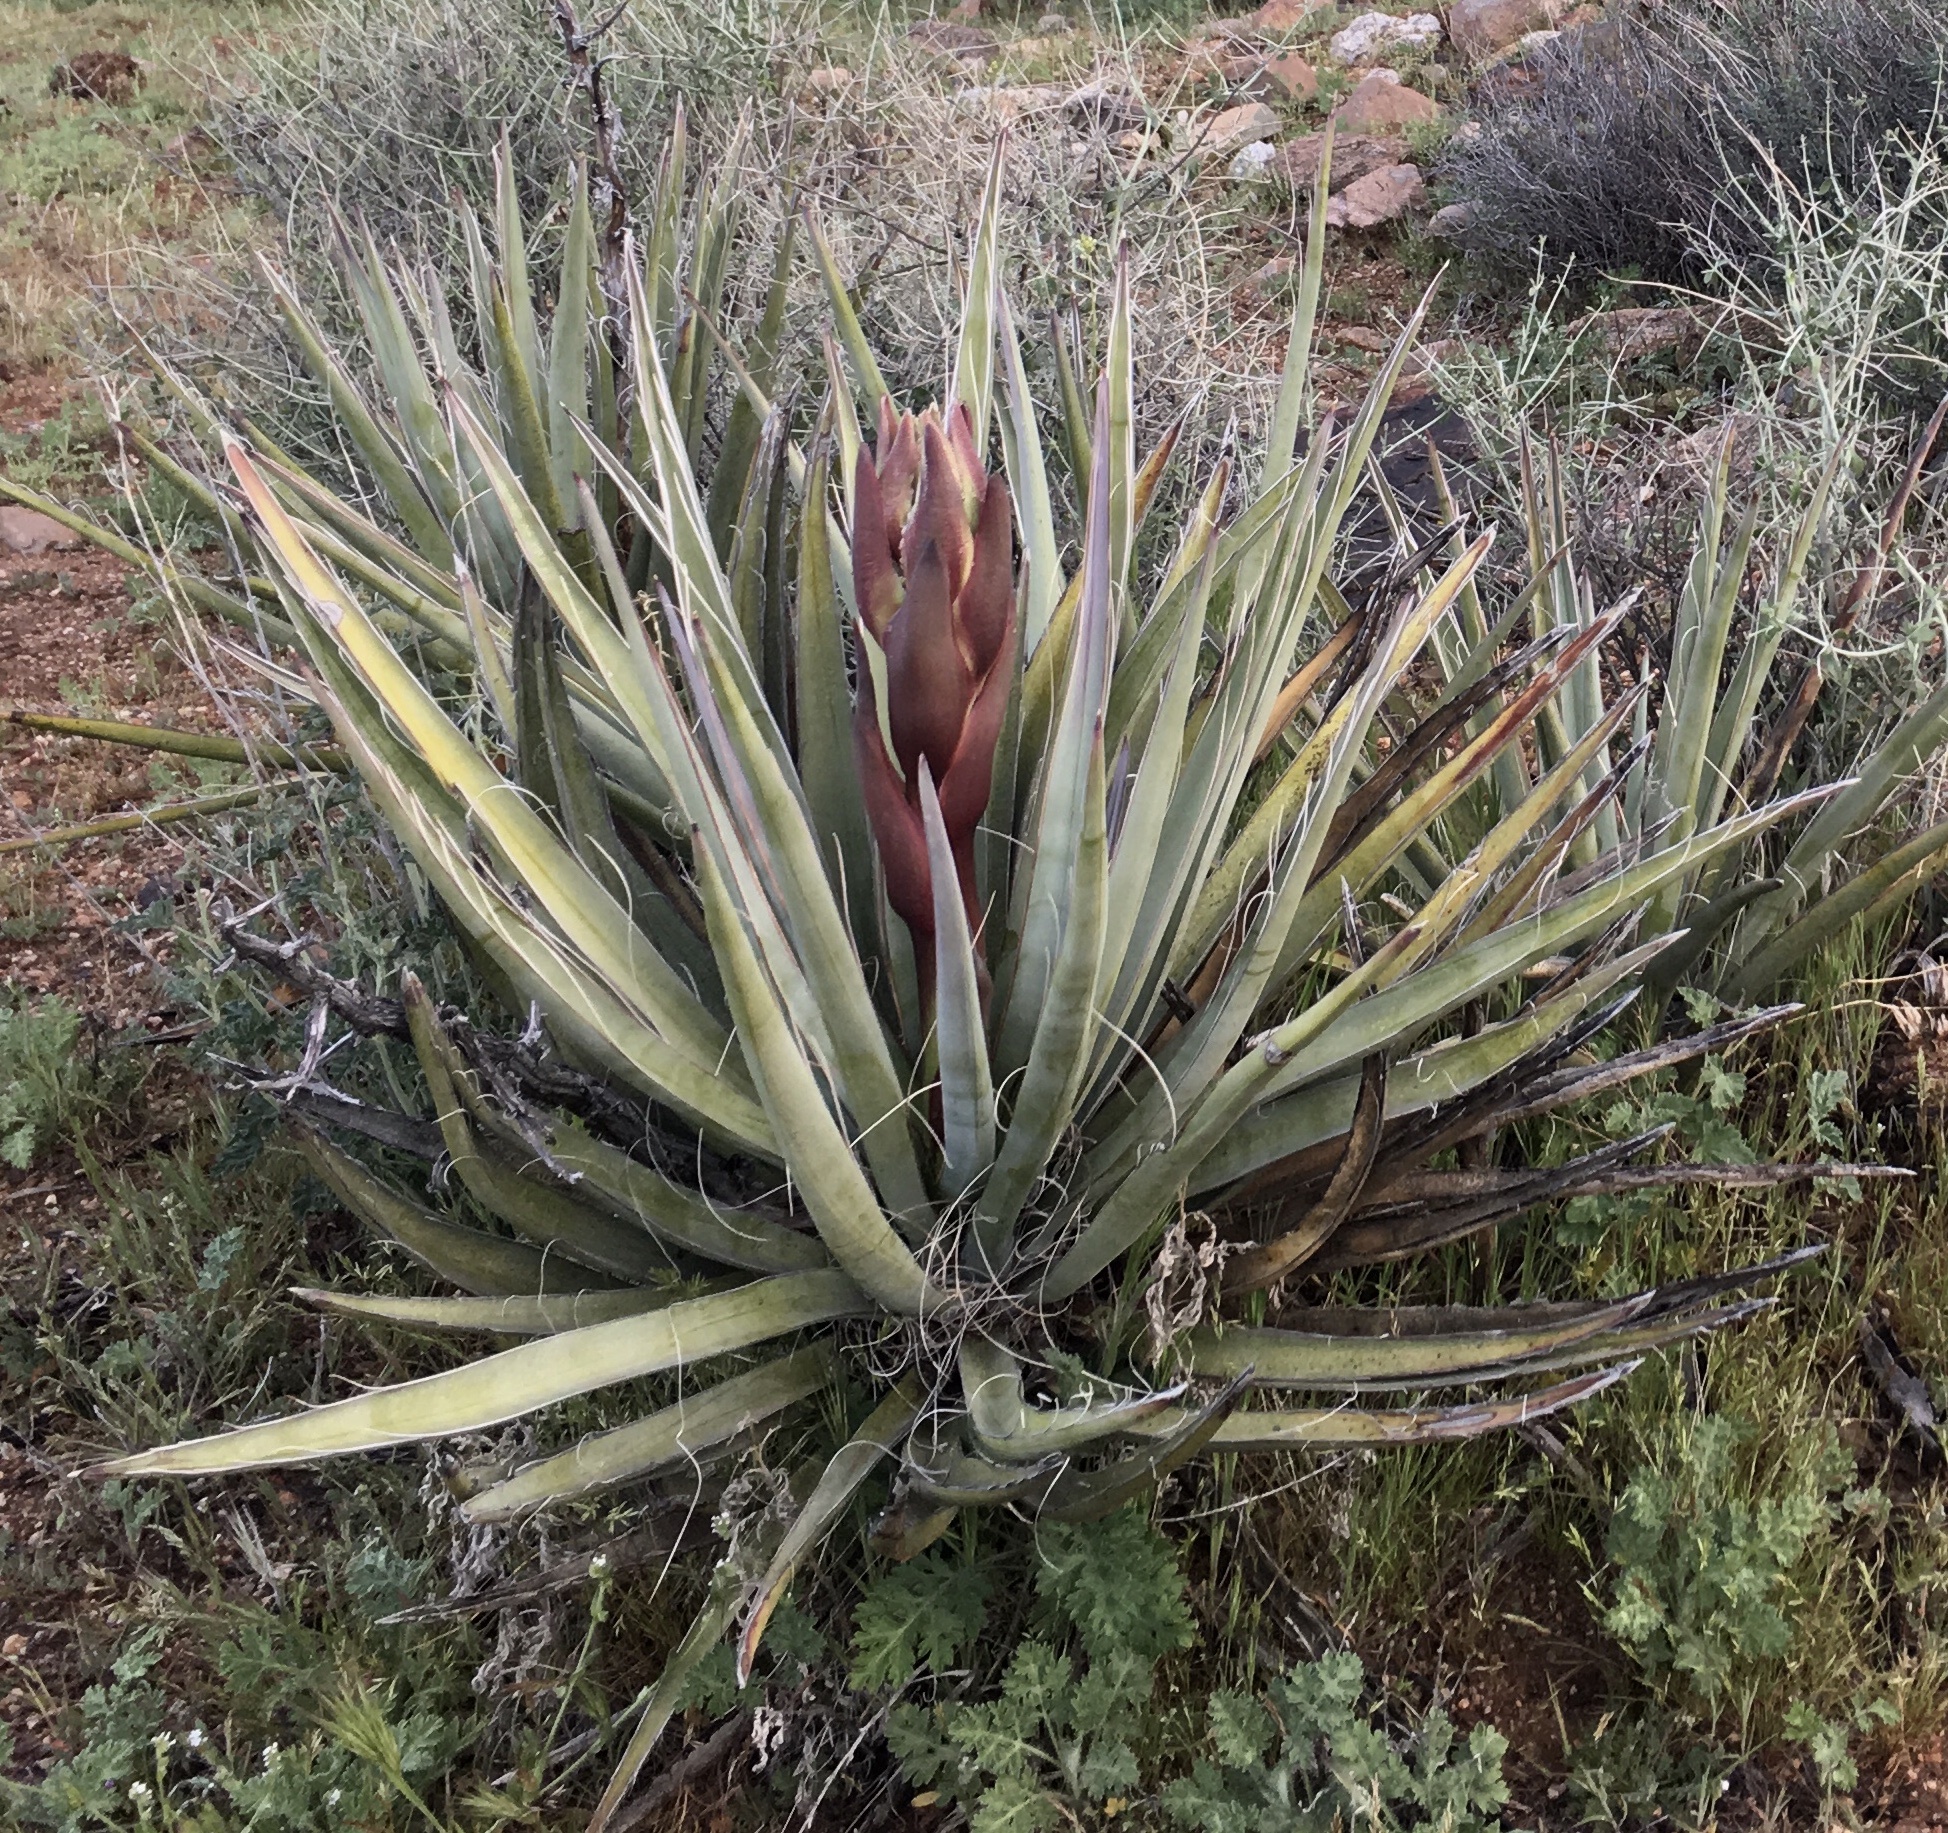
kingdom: Plantae
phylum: Tracheophyta
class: Liliopsida
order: Asparagales
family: Asparagaceae
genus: Yucca
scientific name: Yucca baccata
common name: Banana yucca
